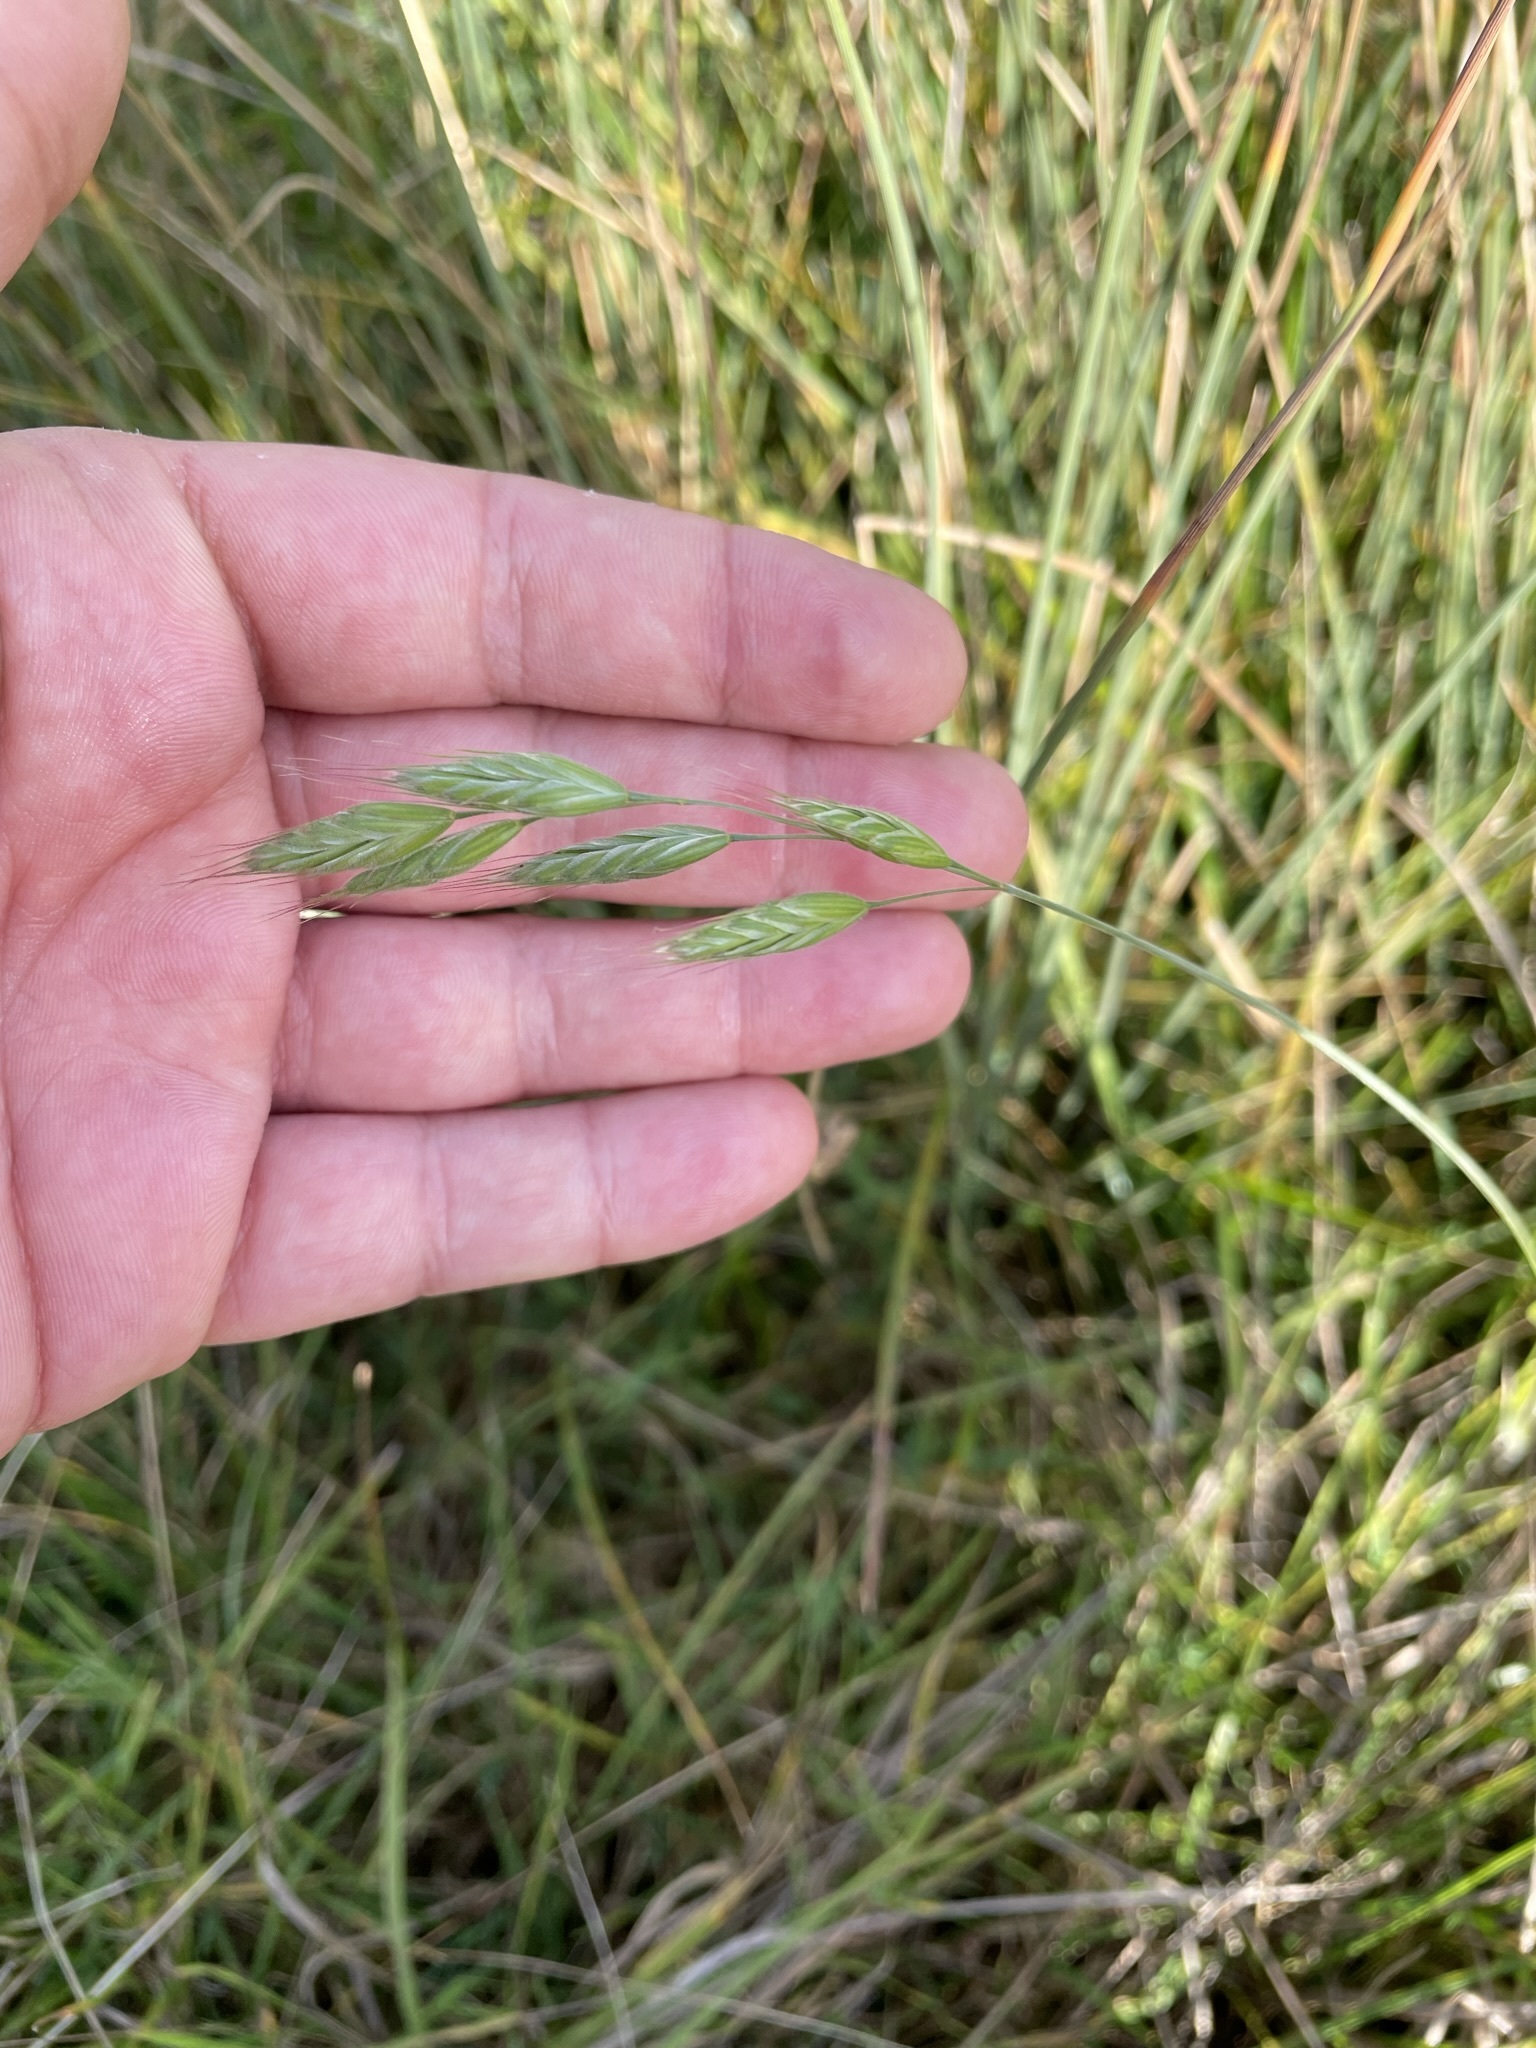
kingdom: Plantae
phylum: Tracheophyta
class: Liliopsida
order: Poales
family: Poaceae
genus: Bromus
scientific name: Bromus hordeaceus
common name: Soft brome
